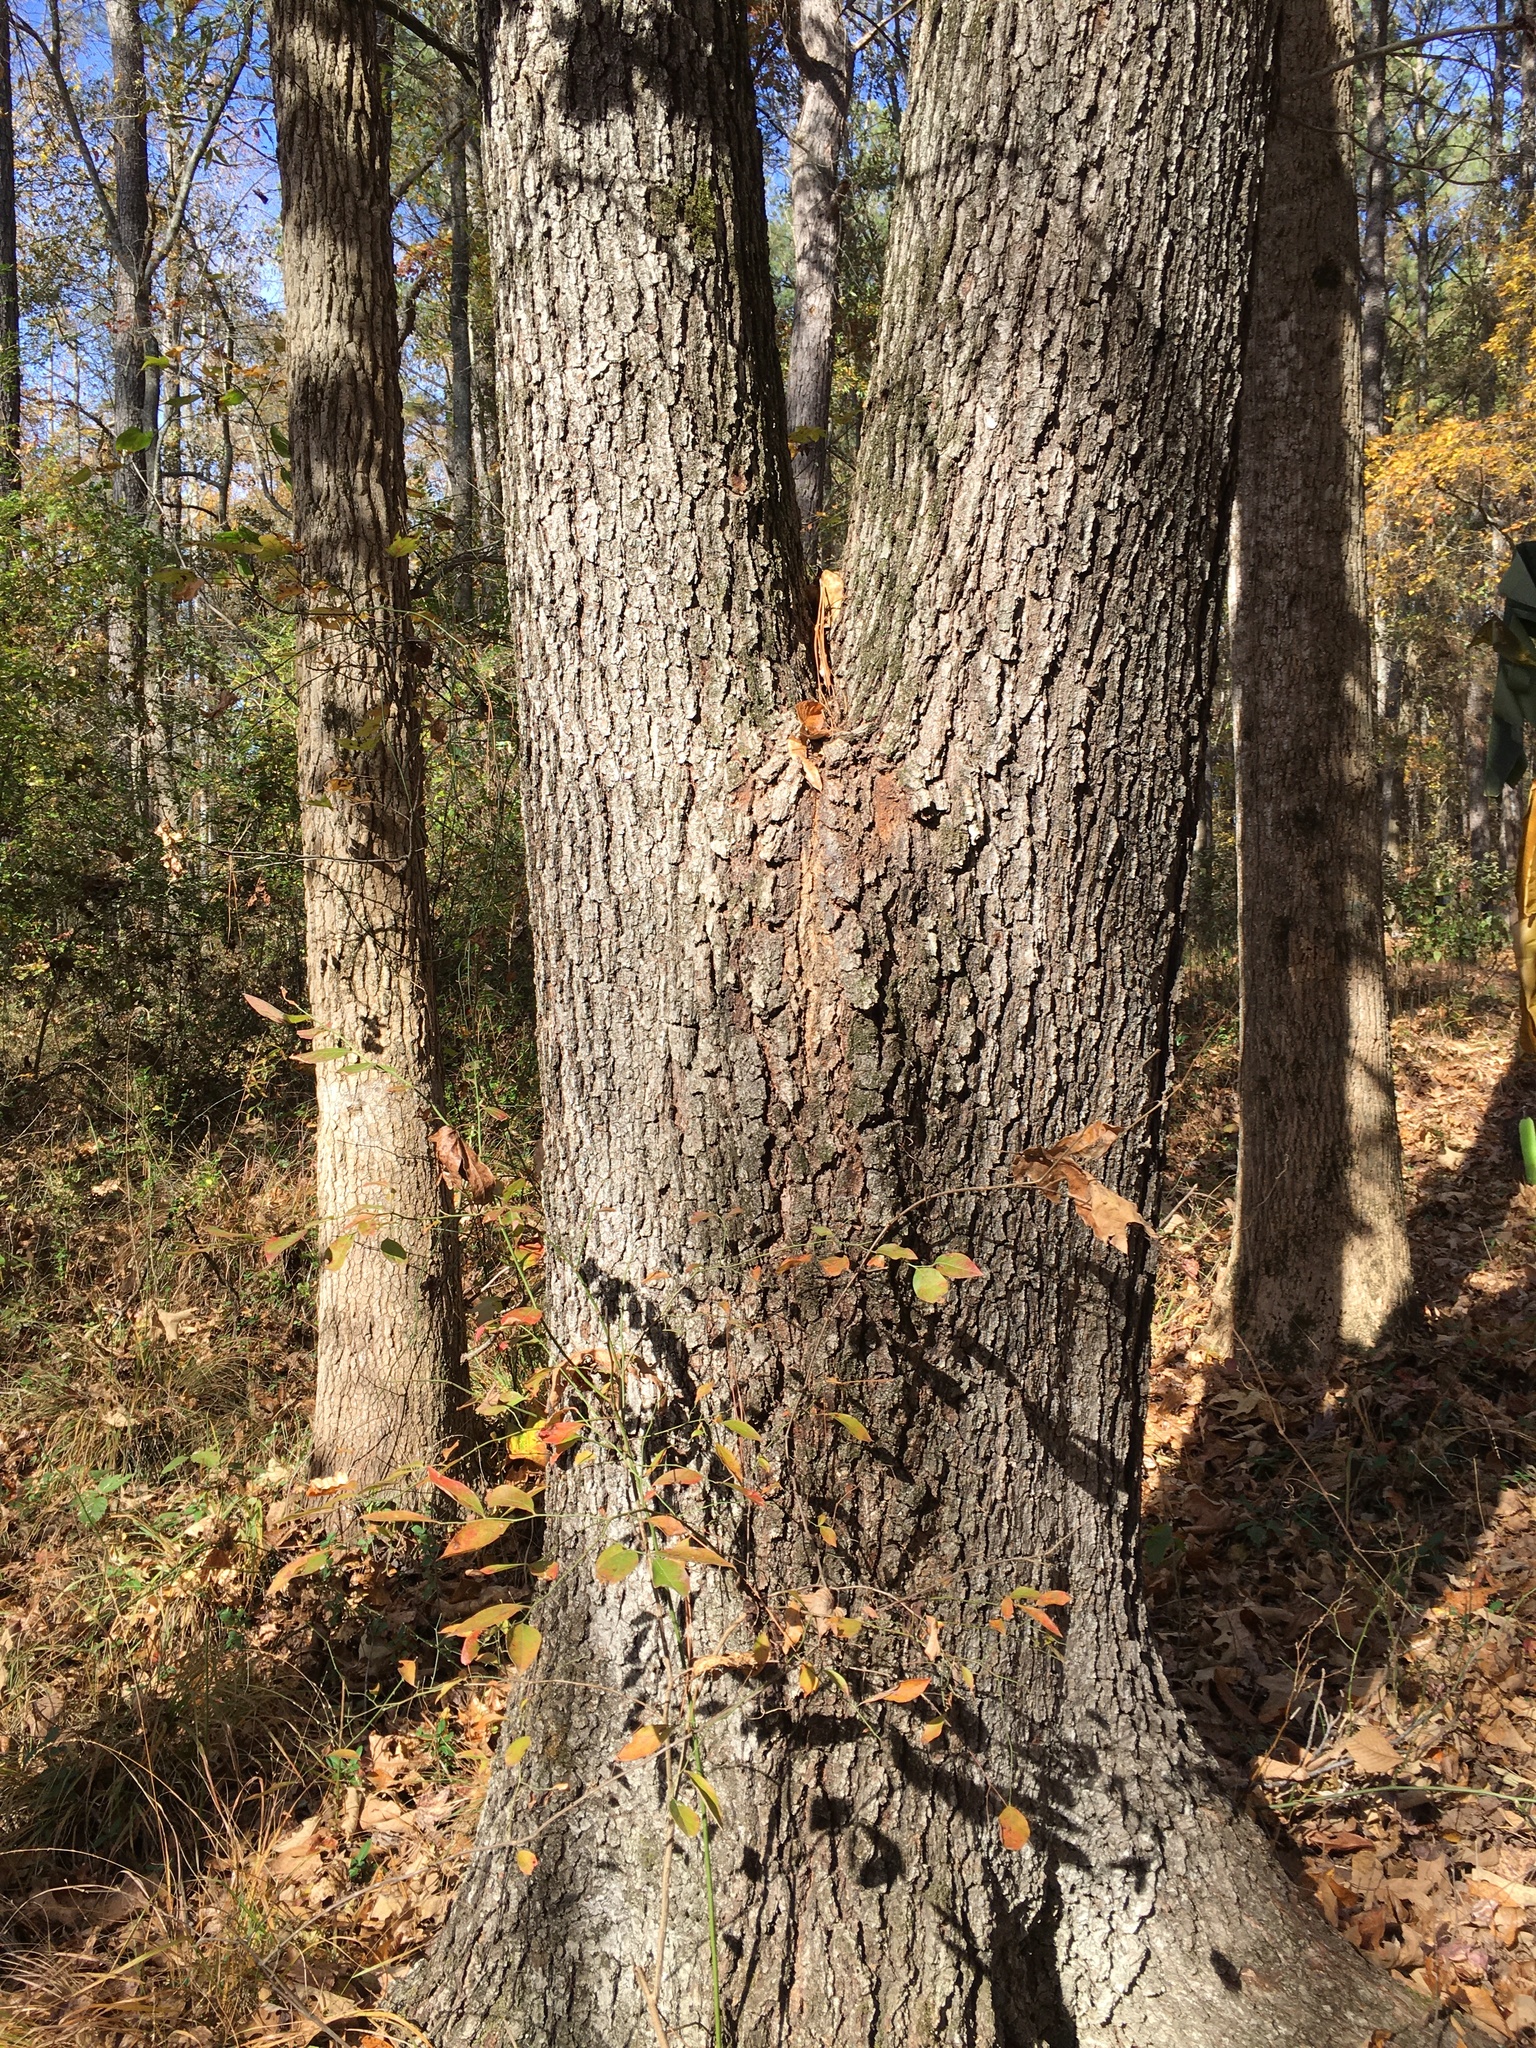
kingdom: Plantae
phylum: Tracheophyta
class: Magnoliopsida
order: Fagales
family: Fagaceae
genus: Quercus
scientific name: Quercus velutina
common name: Black oak
